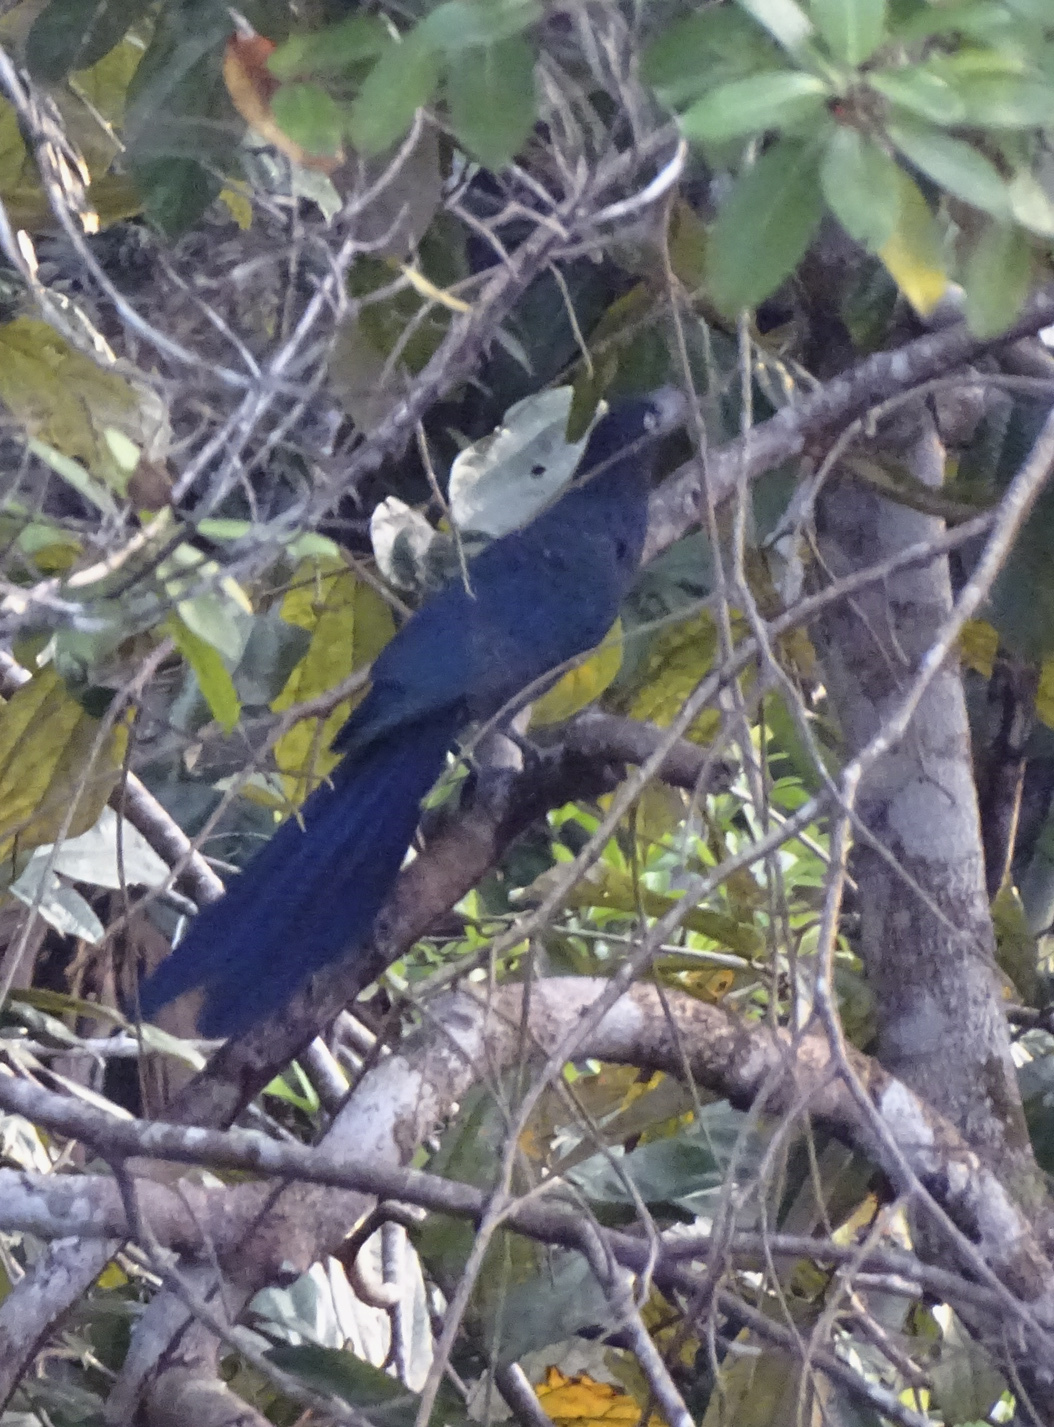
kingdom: Animalia
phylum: Chordata
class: Aves
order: Cuculiformes
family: Cuculidae
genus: Crotophaga
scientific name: Crotophaga major
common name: Greater ani
